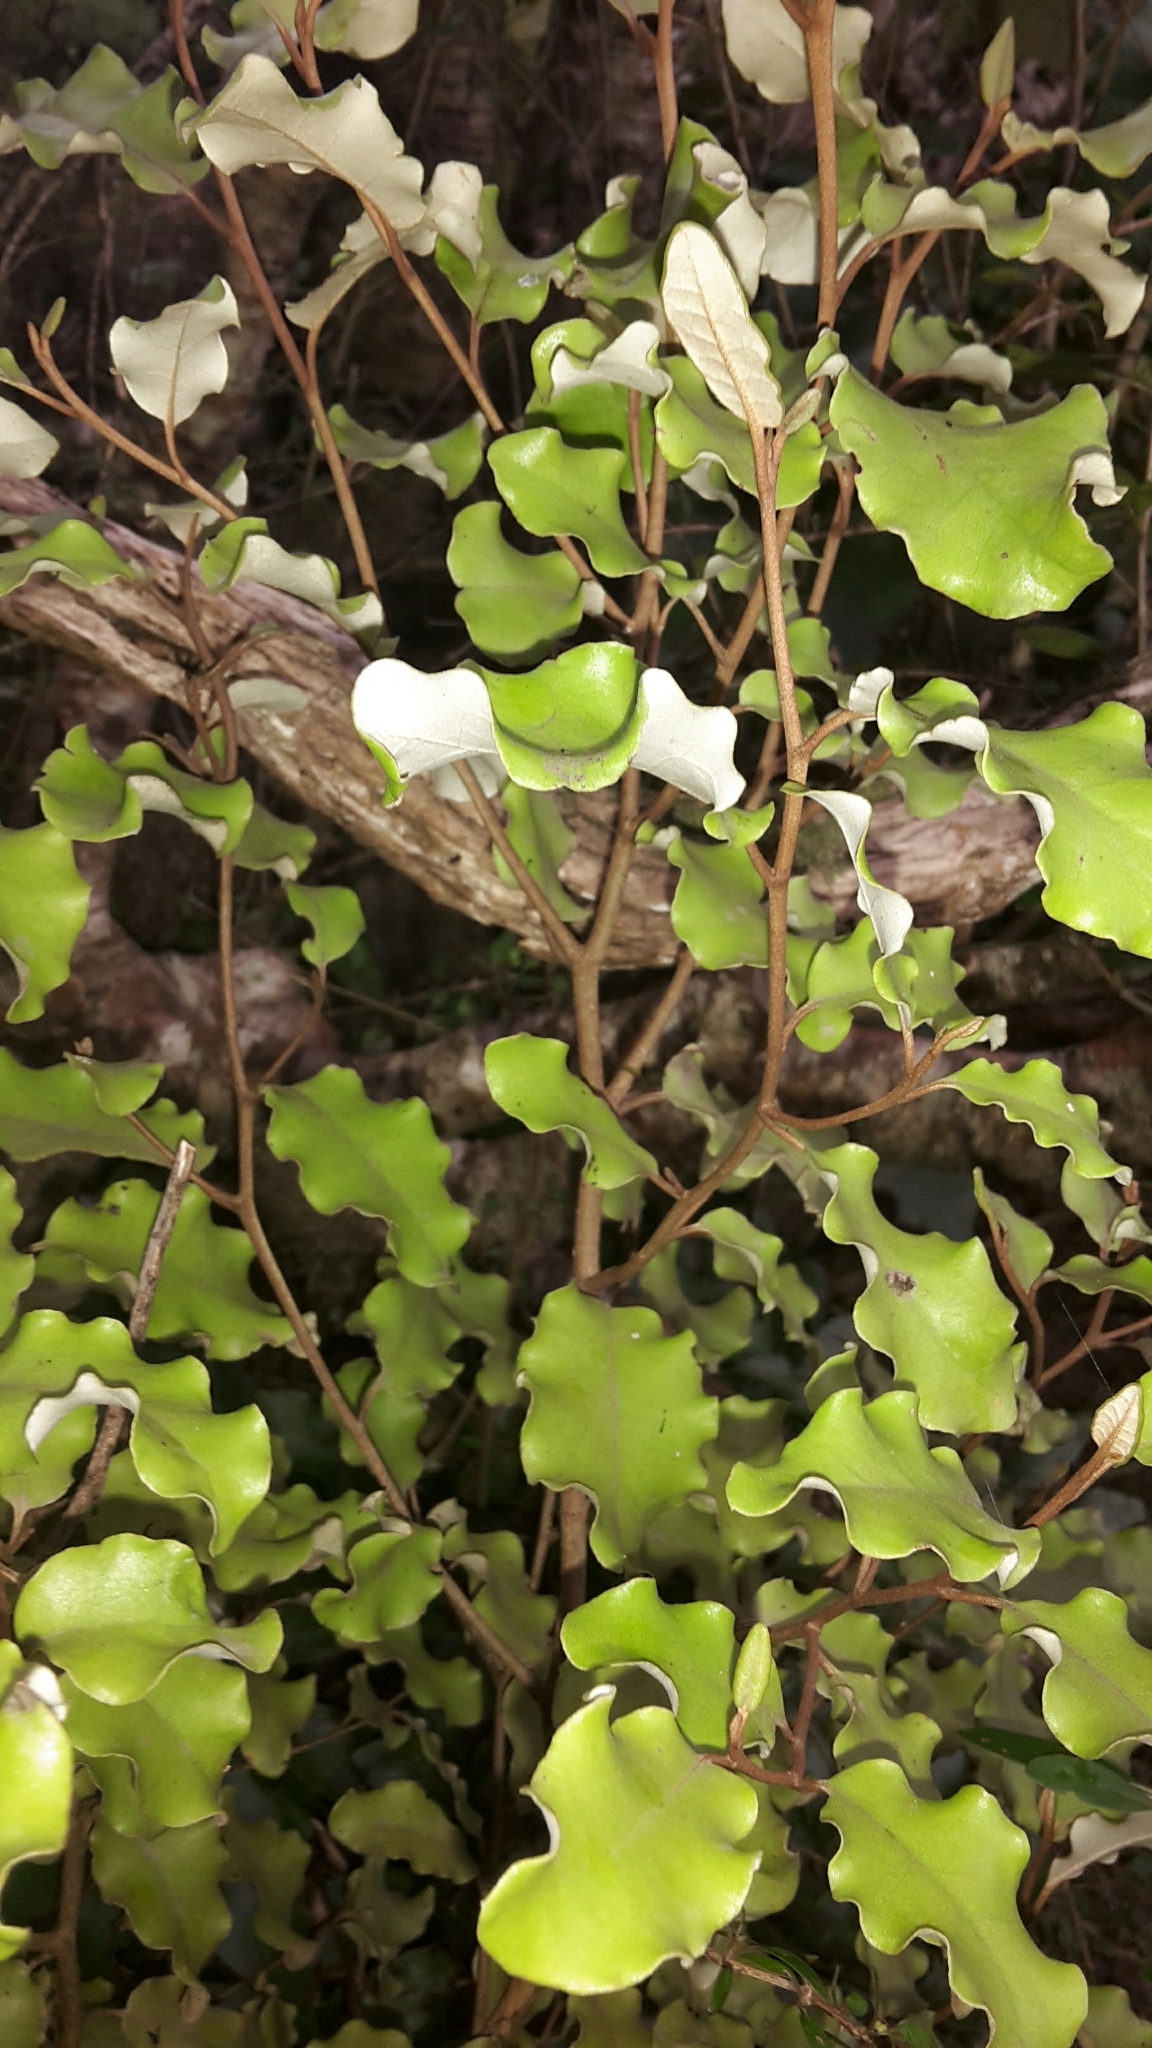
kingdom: Plantae
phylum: Tracheophyta
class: Magnoliopsida
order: Asterales
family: Asteraceae
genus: Olearia
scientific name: Olearia paniculata
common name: Akiraho
